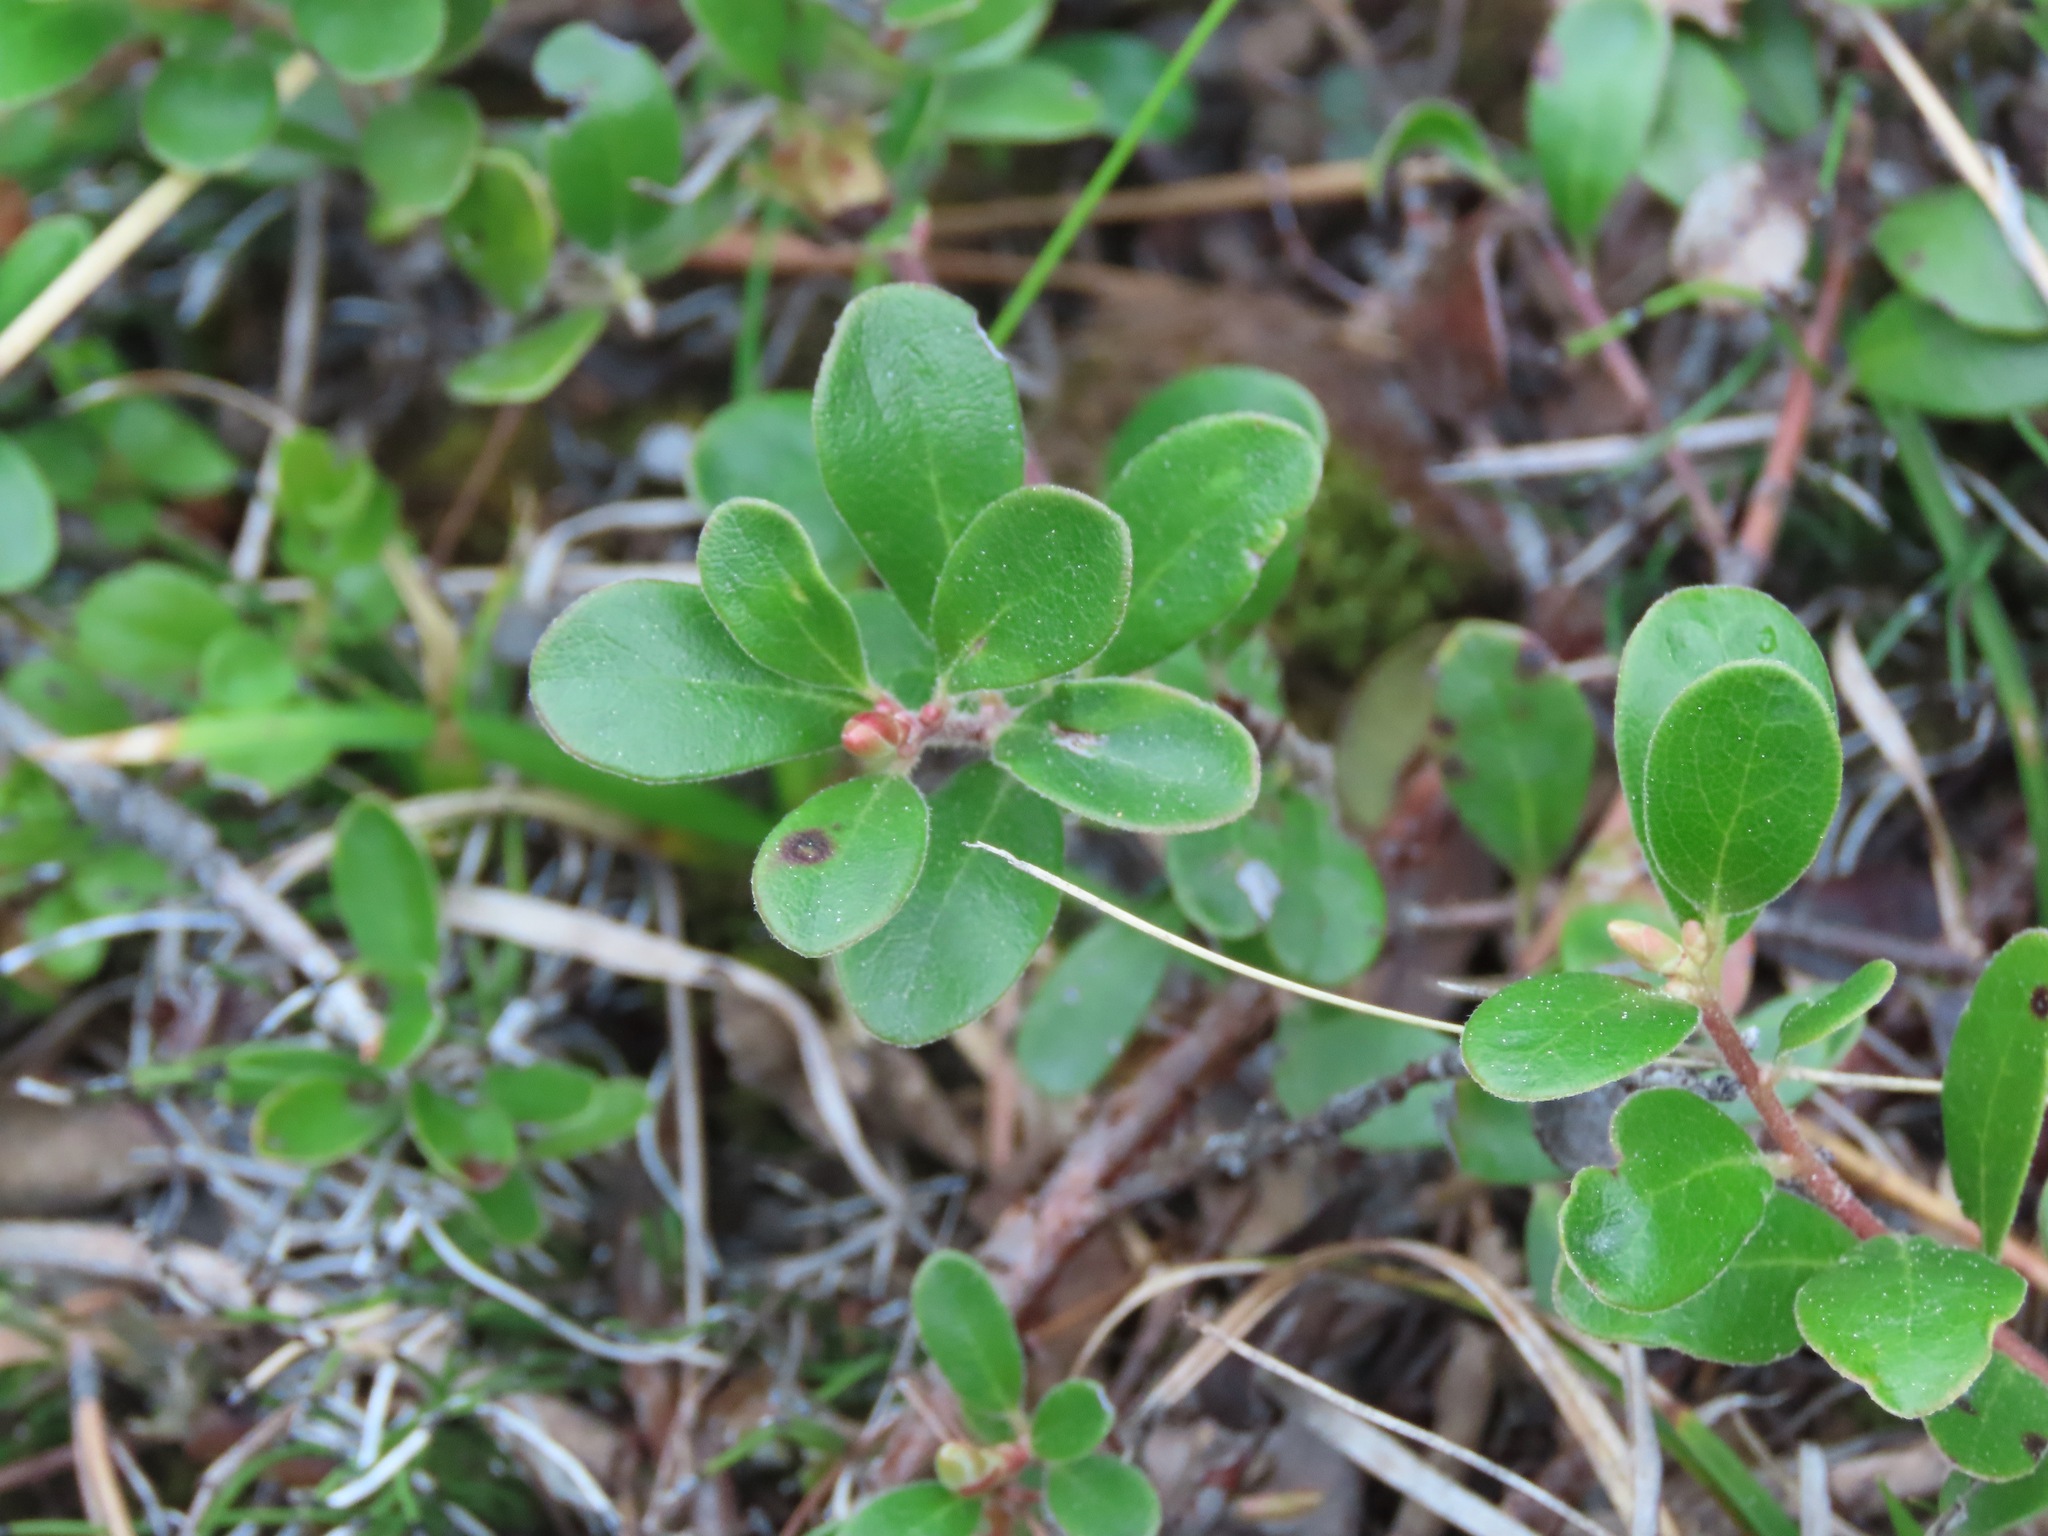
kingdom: Plantae
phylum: Tracheophyta
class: Magnoliopsida
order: Ericales
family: Ericaceae
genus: Arctostaphylos
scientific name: Arctostaphylos uva-ursi
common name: Bearberry
